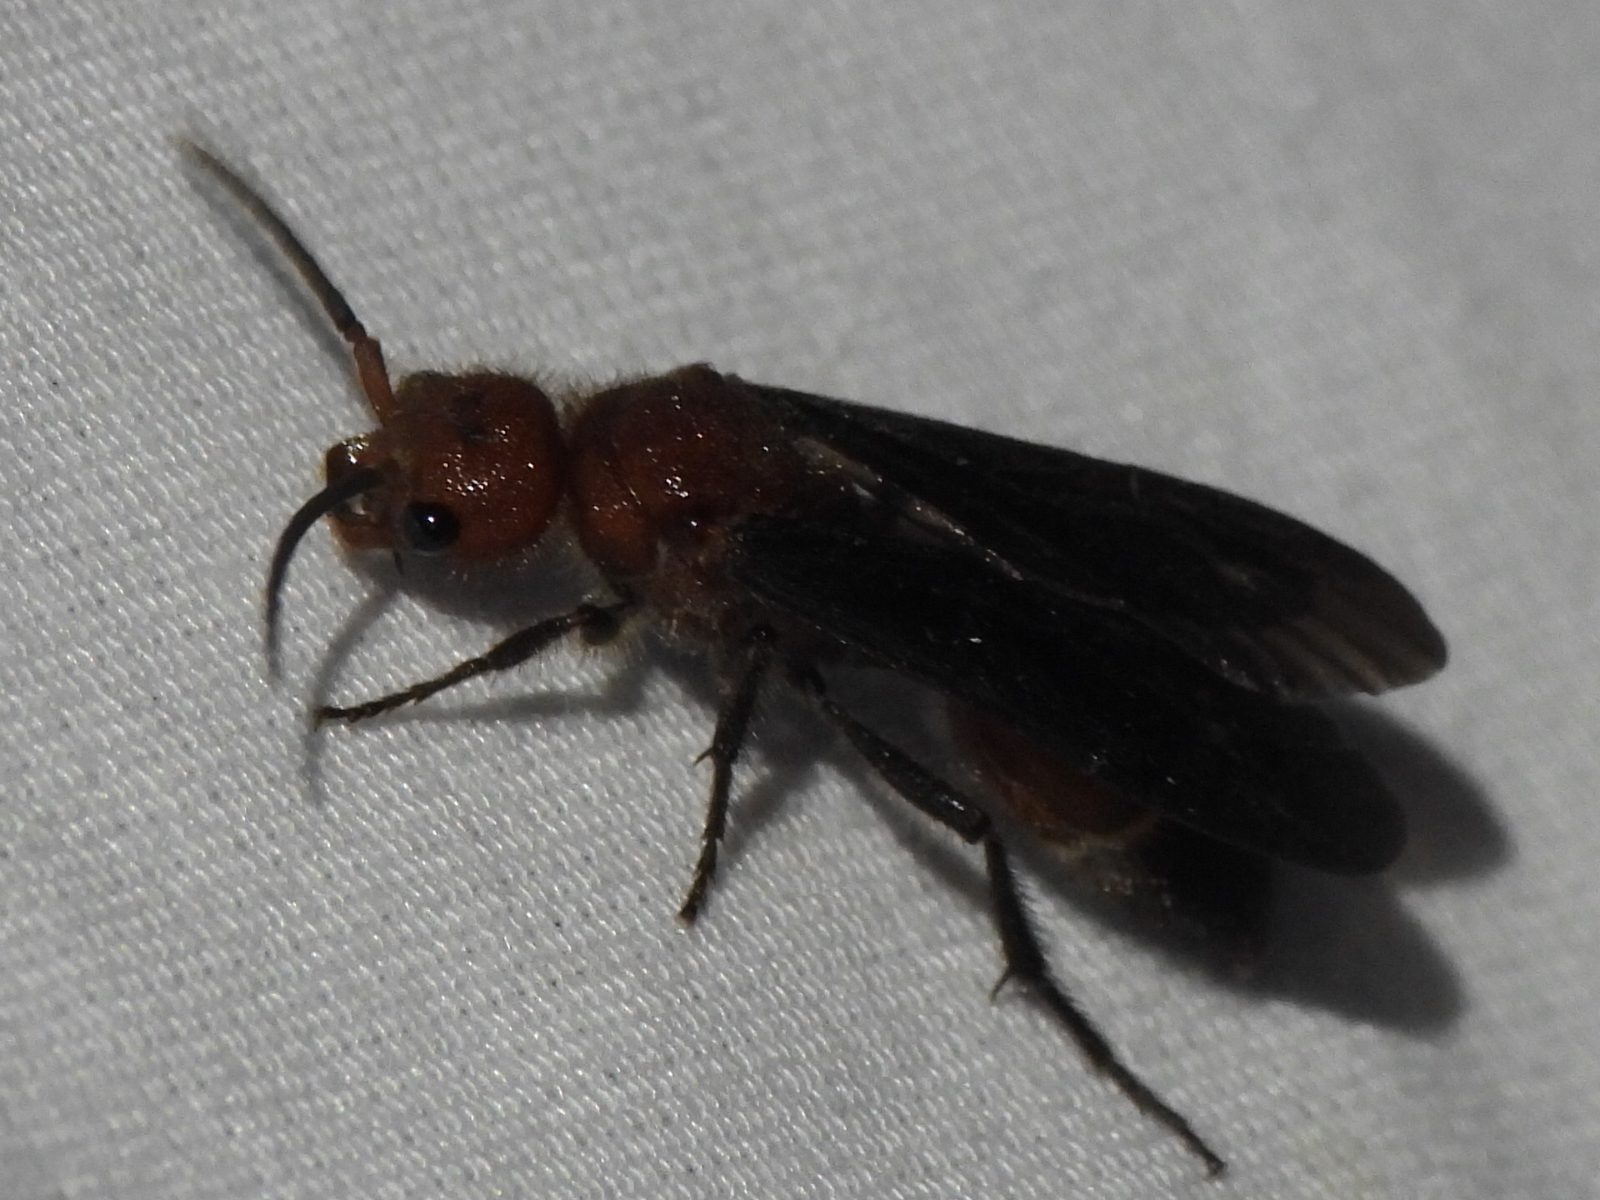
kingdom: Animalia
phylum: Arthropoda
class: Insecta
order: Hymenoptera
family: Mutillidae
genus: Sphaeropthalma
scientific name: Sphaeropthalma
